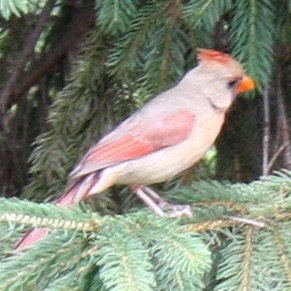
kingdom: Animalia
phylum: Chordata
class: Aves
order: Passeriformes
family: Cardinalidae
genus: Cardinalis
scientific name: Cardinalis cardinalis
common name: Northern cardinal
